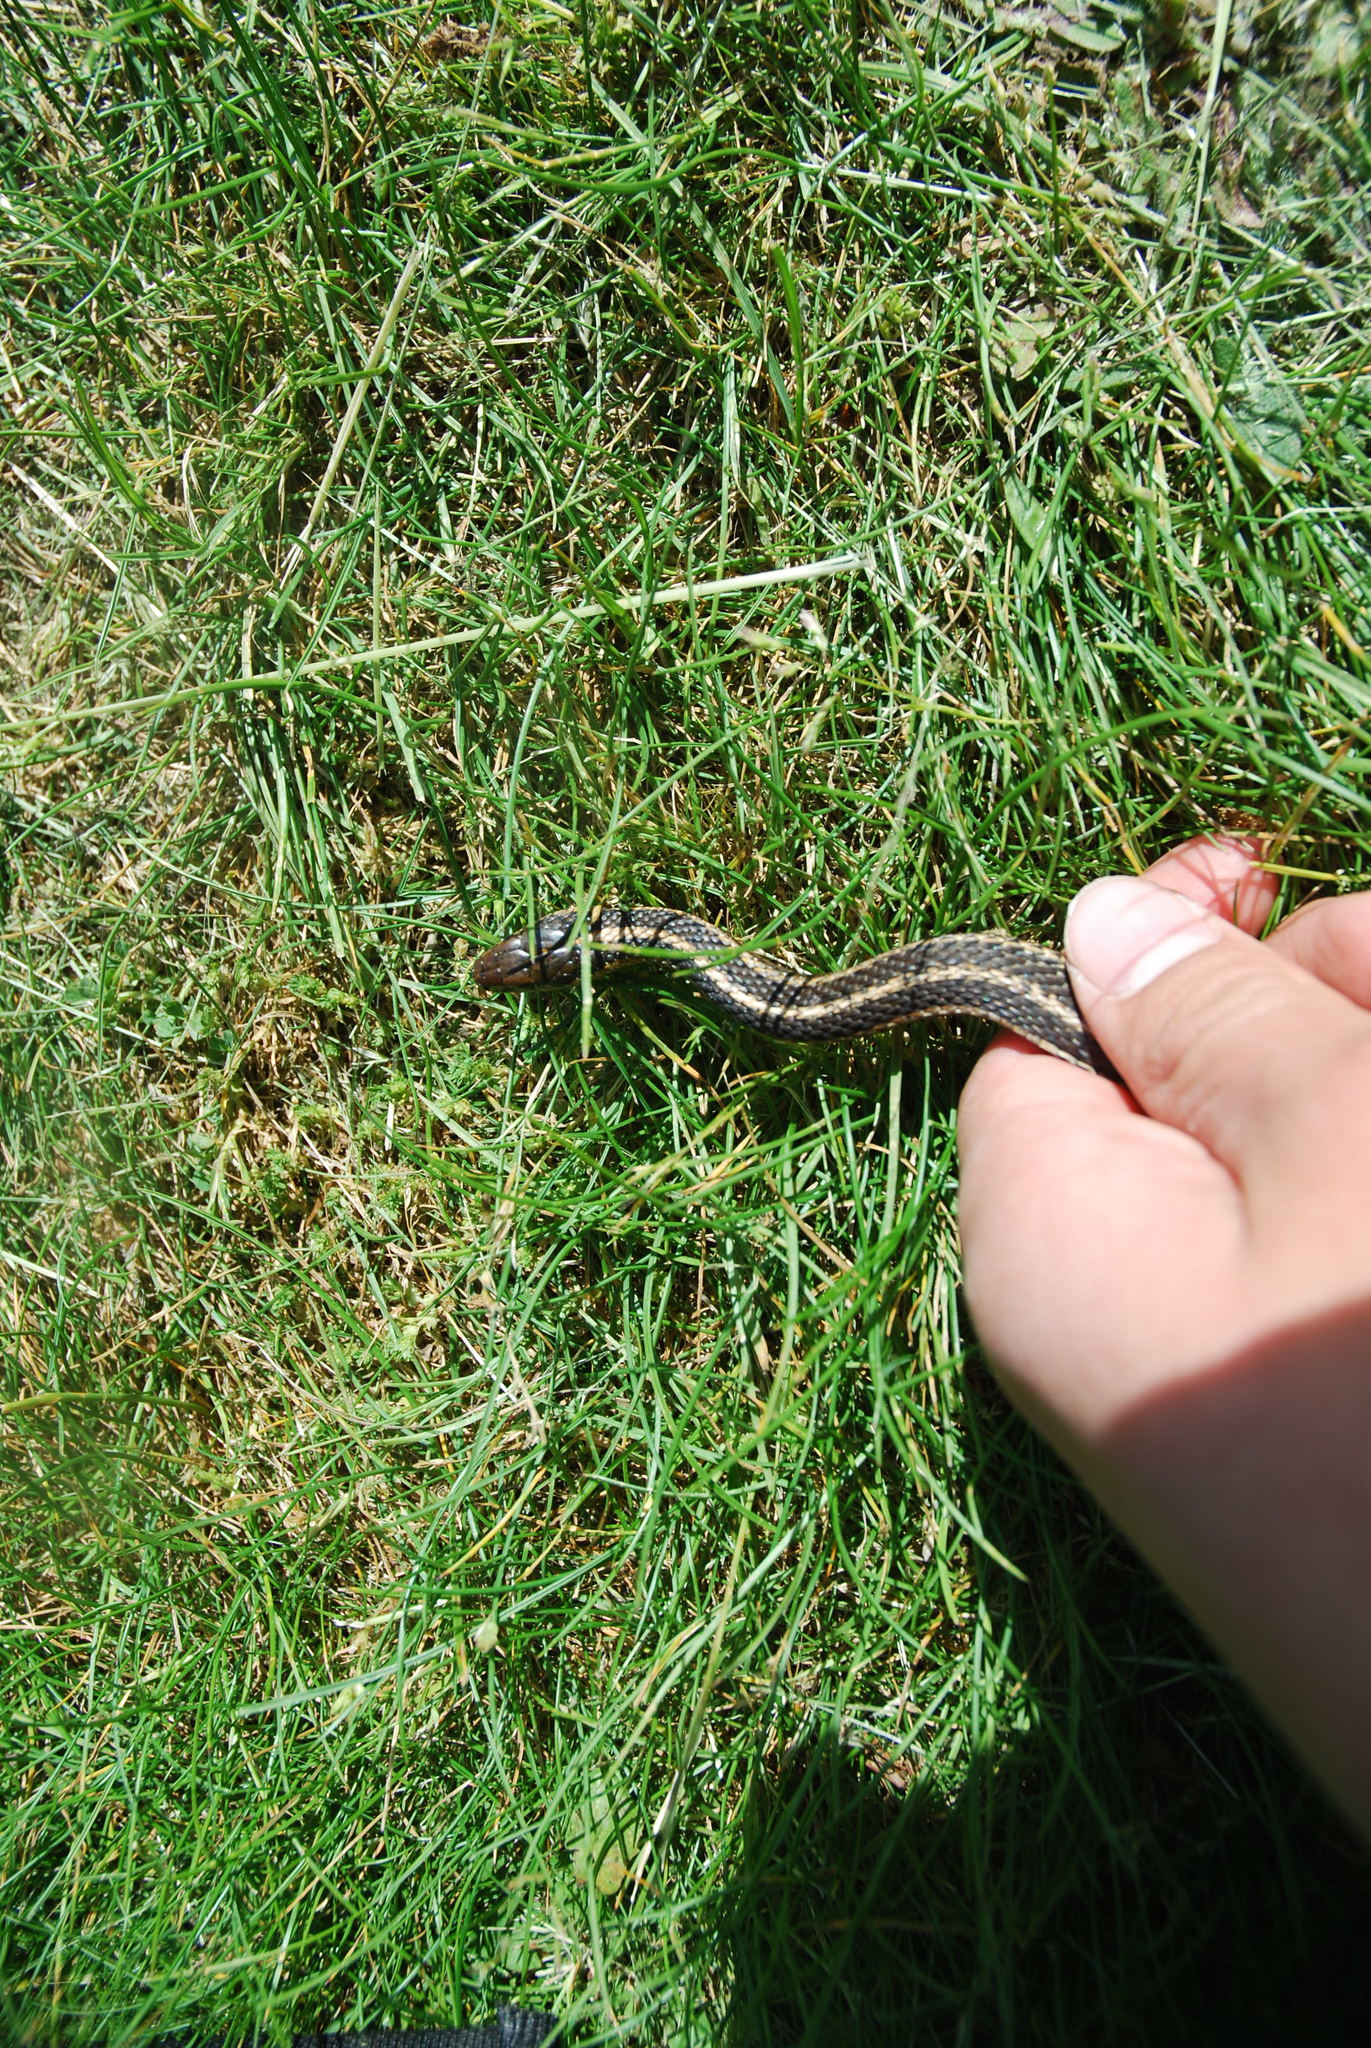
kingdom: Animalia
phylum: Chordata
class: Squamata
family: Colubridae
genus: Thamnophis
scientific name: Thamnophis ordinoides
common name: Northwestern garter snake
